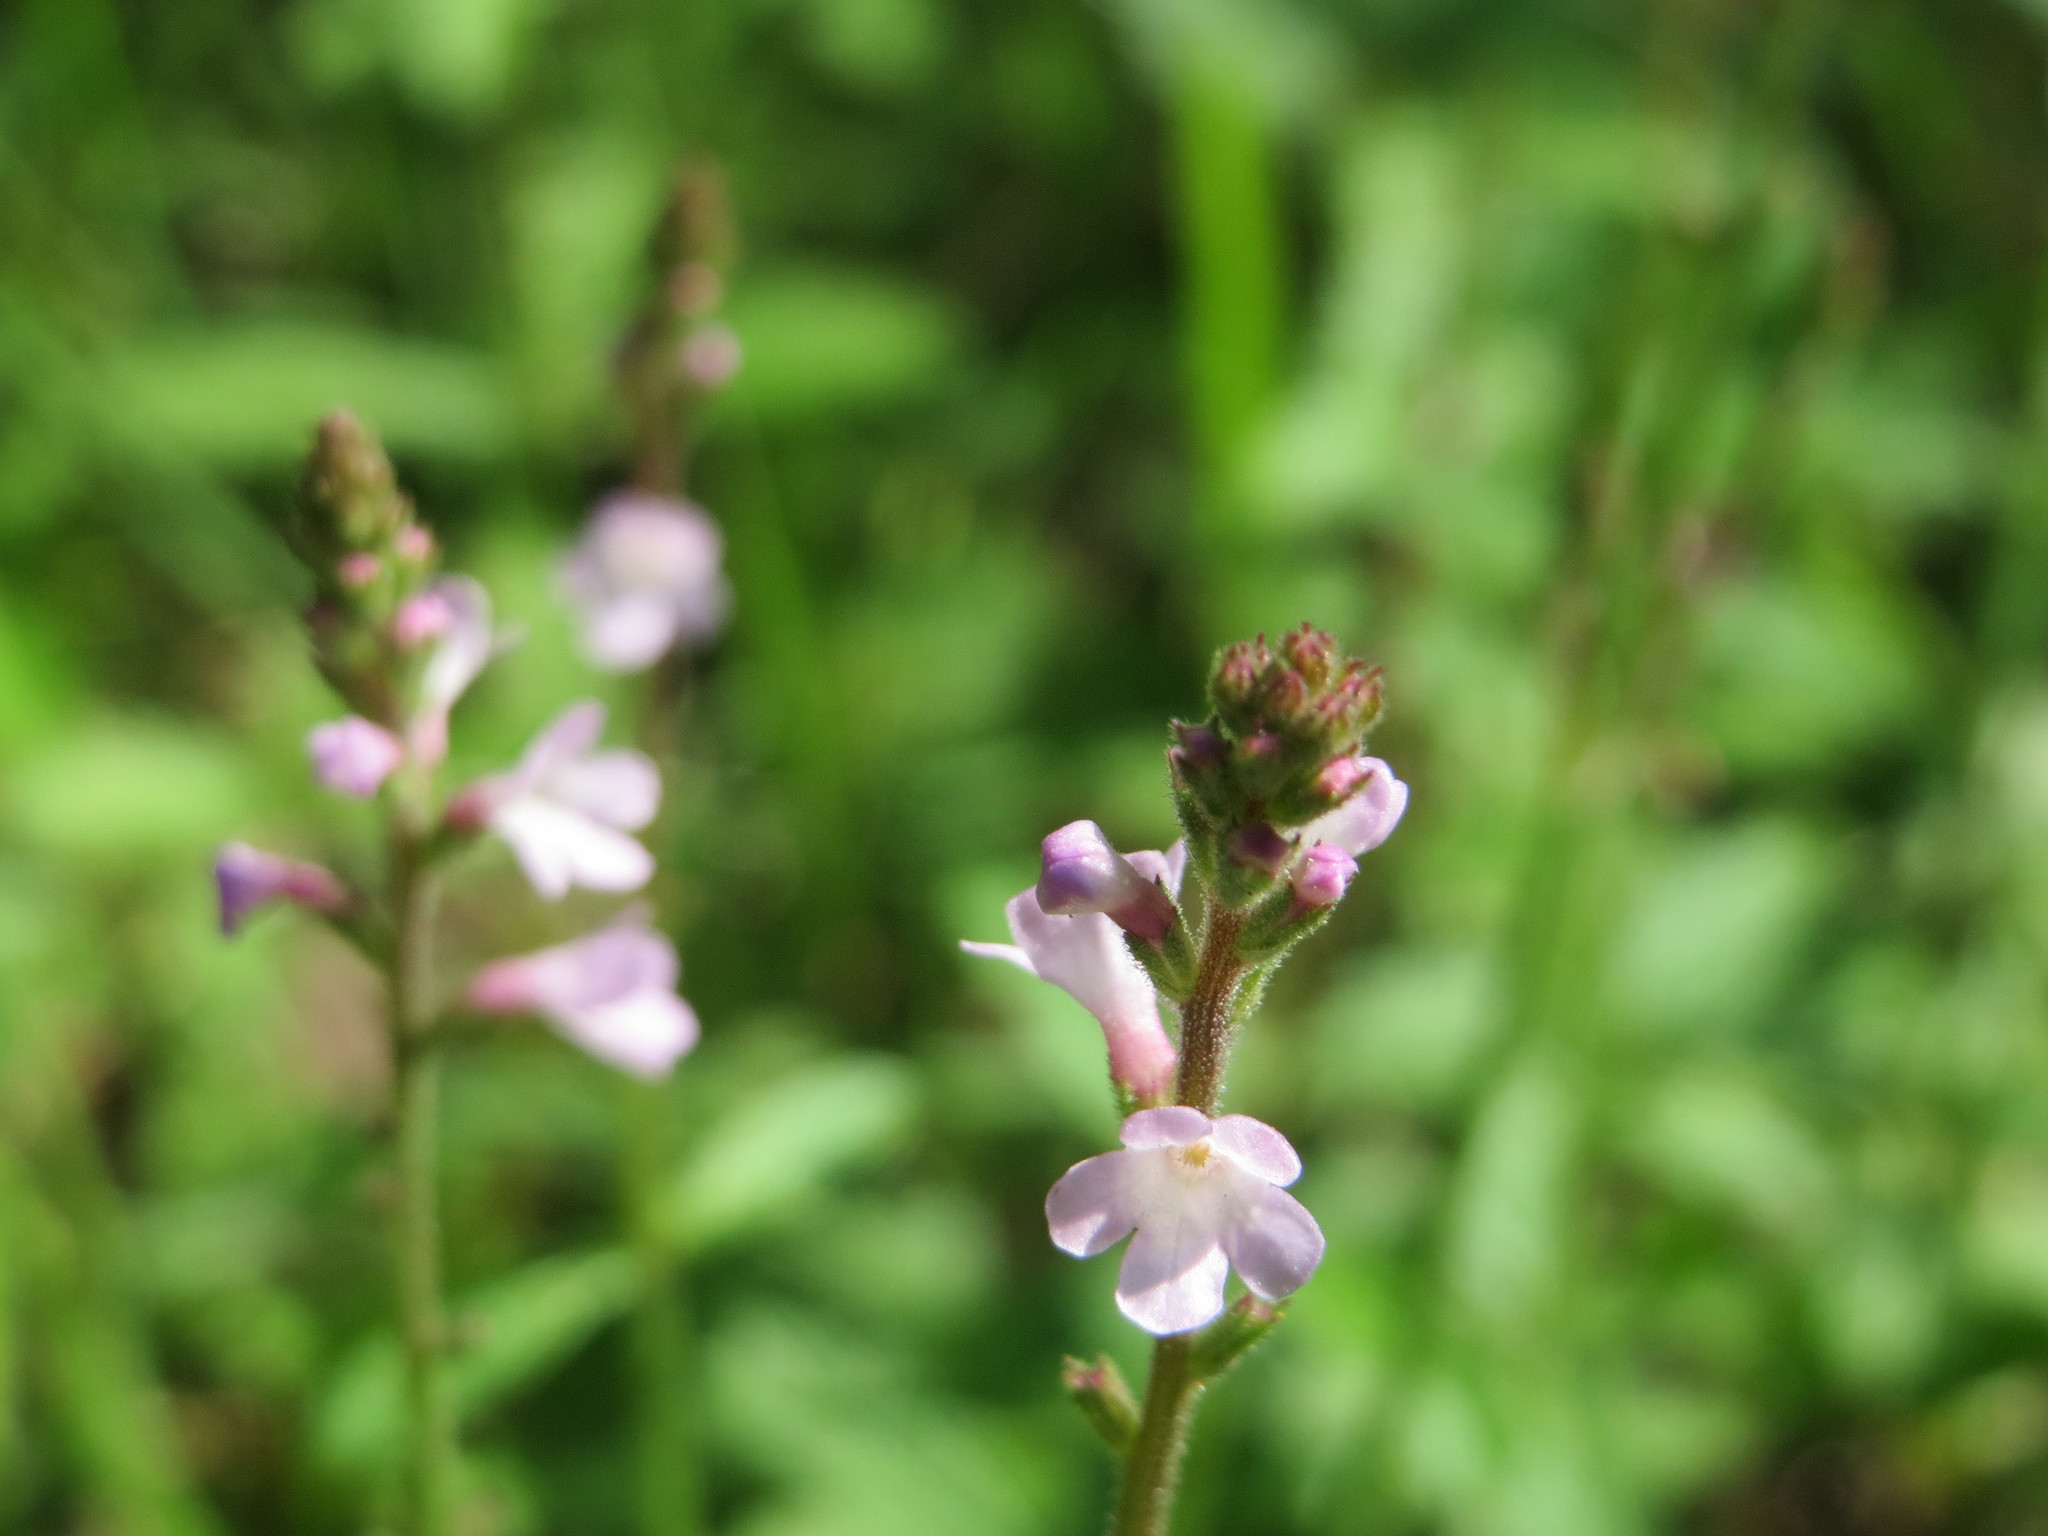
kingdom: Plantae
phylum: Tracheophyta
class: Magnoliopsida
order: Lamiales
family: Verbenaceae
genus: Verbena
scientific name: Verbena officinalis
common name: Vervain
